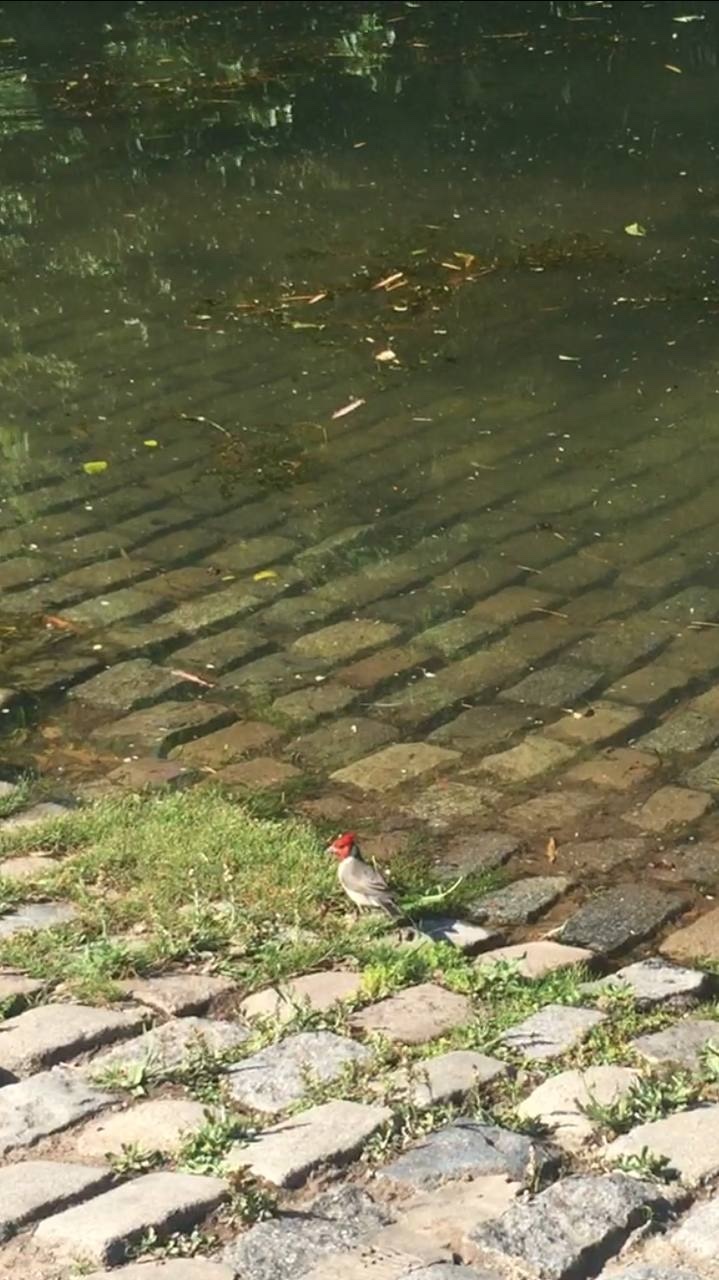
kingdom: Animalia
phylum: Chordata
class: Aves
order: Passeriformes
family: Thraupidae
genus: Paroaria
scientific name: Paroaria coronata
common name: Red-crested cardinal
